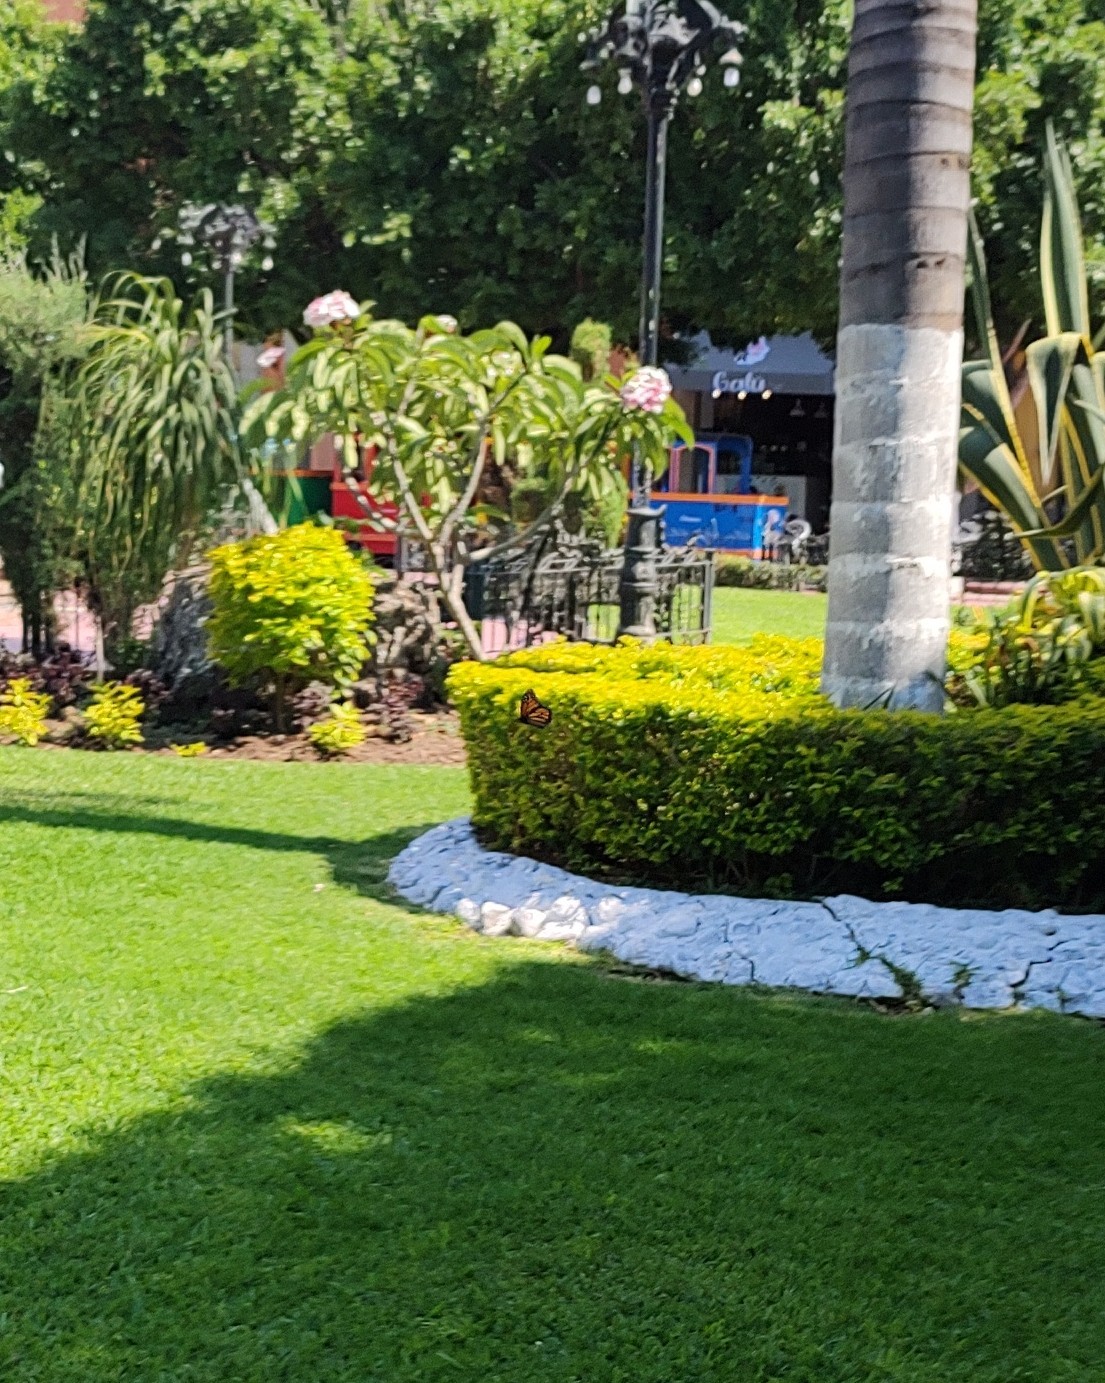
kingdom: Animalia
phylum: Arthropoda
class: Insecta
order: Lepidoptera
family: Nymphalidae
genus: Danaus
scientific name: Danaus plexippus
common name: Monarch
